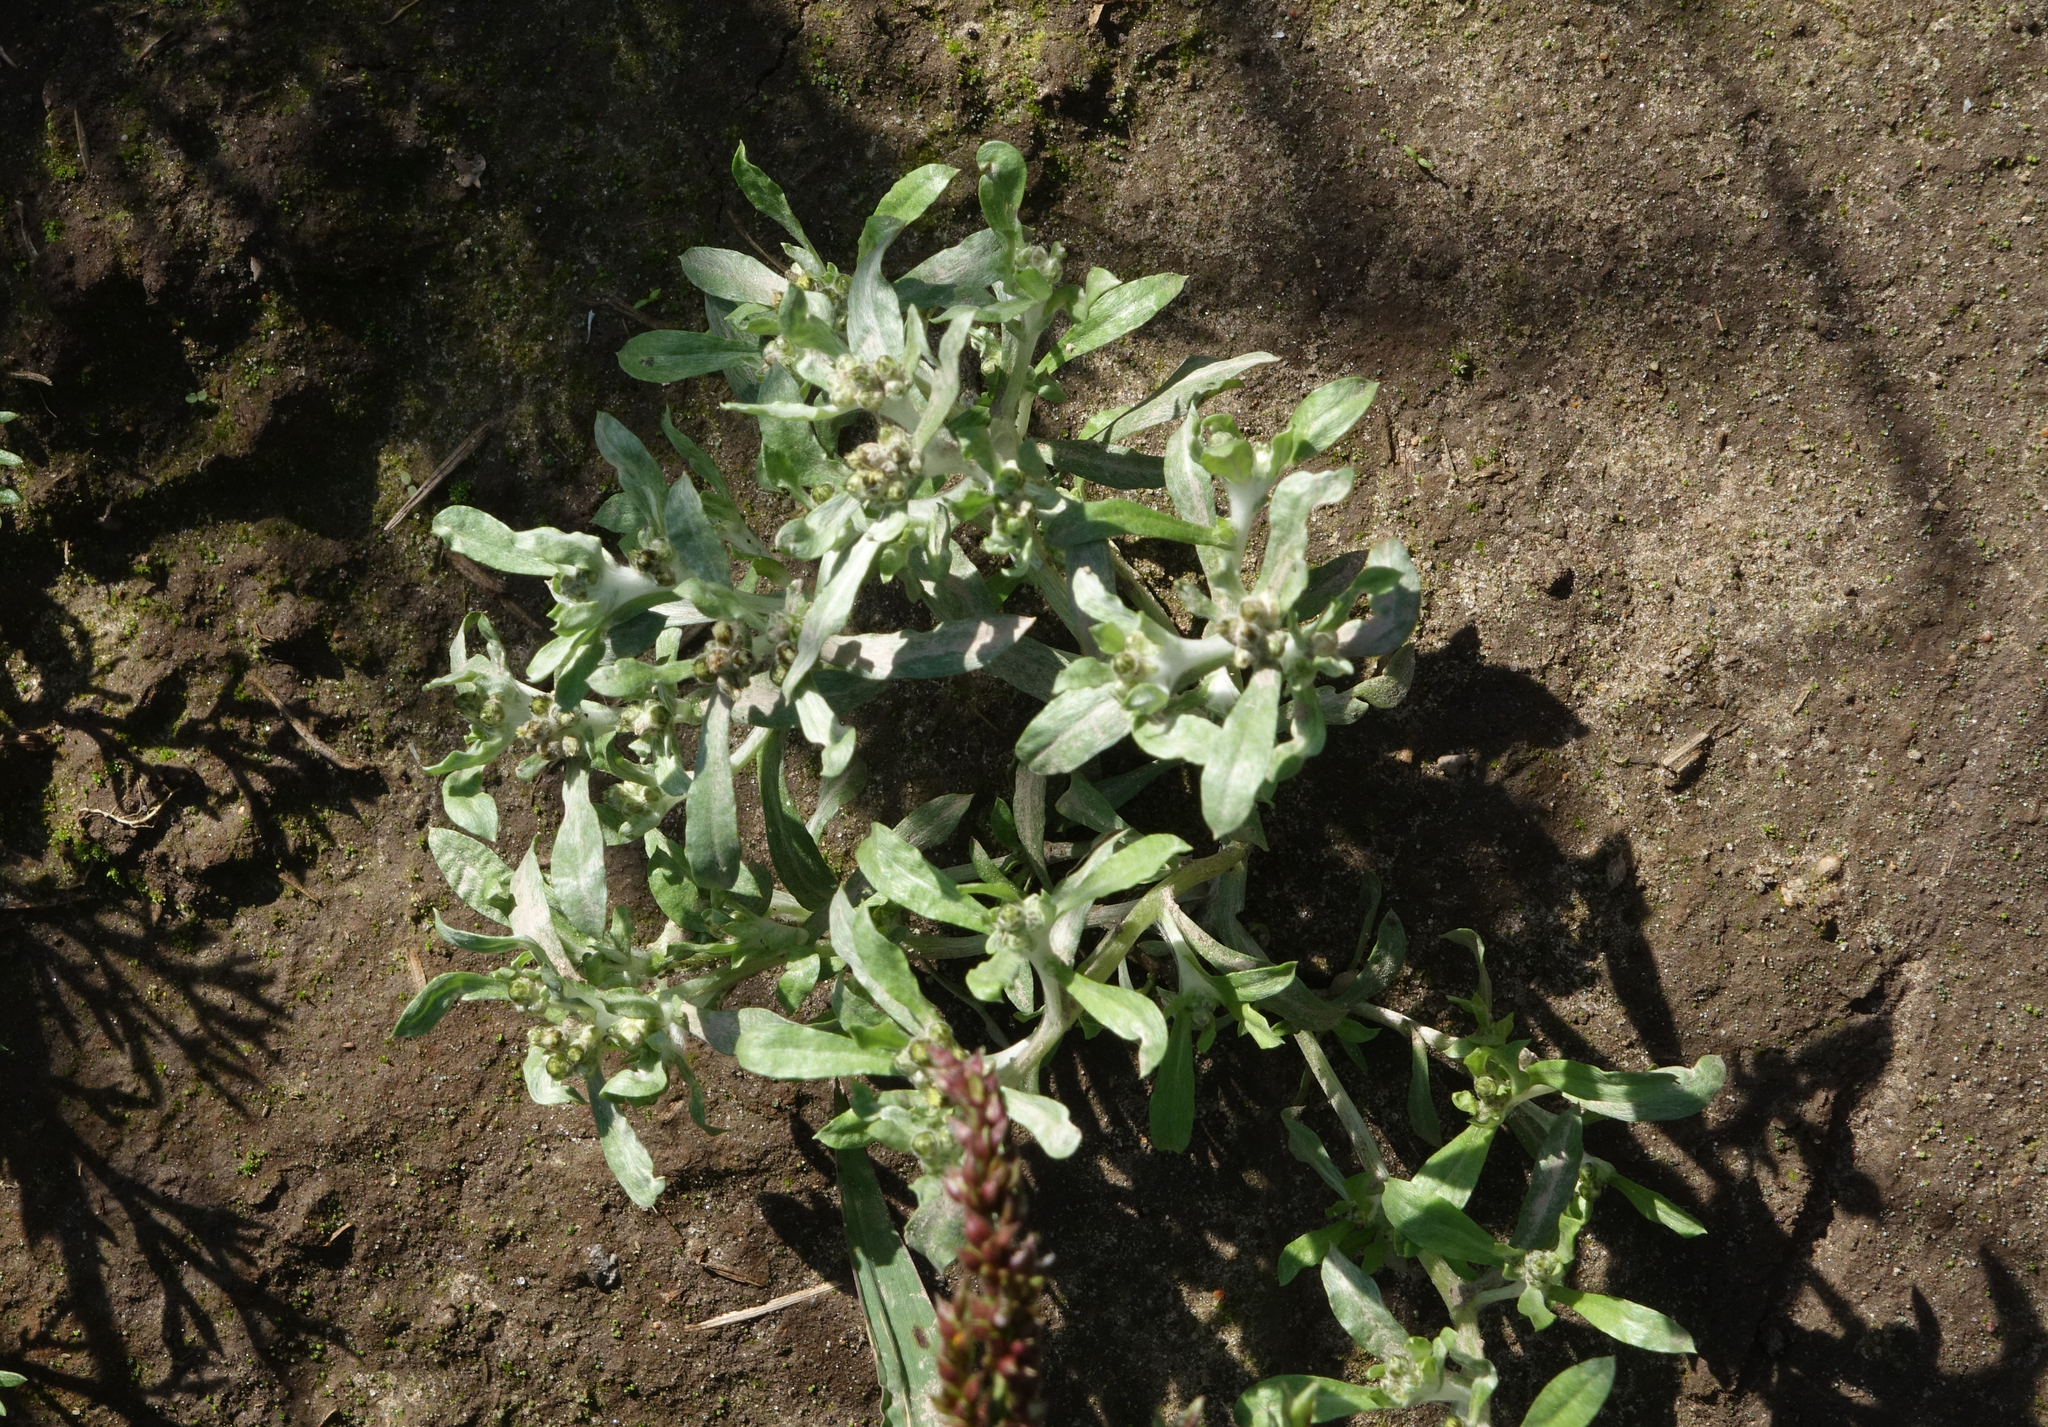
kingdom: Plantae
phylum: Tracheophyta
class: Magnoliopsida
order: Asterales
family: Asteraceae
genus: Gnaphalium
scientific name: Gnaphalium uliginosum
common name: Marsh cudweed
